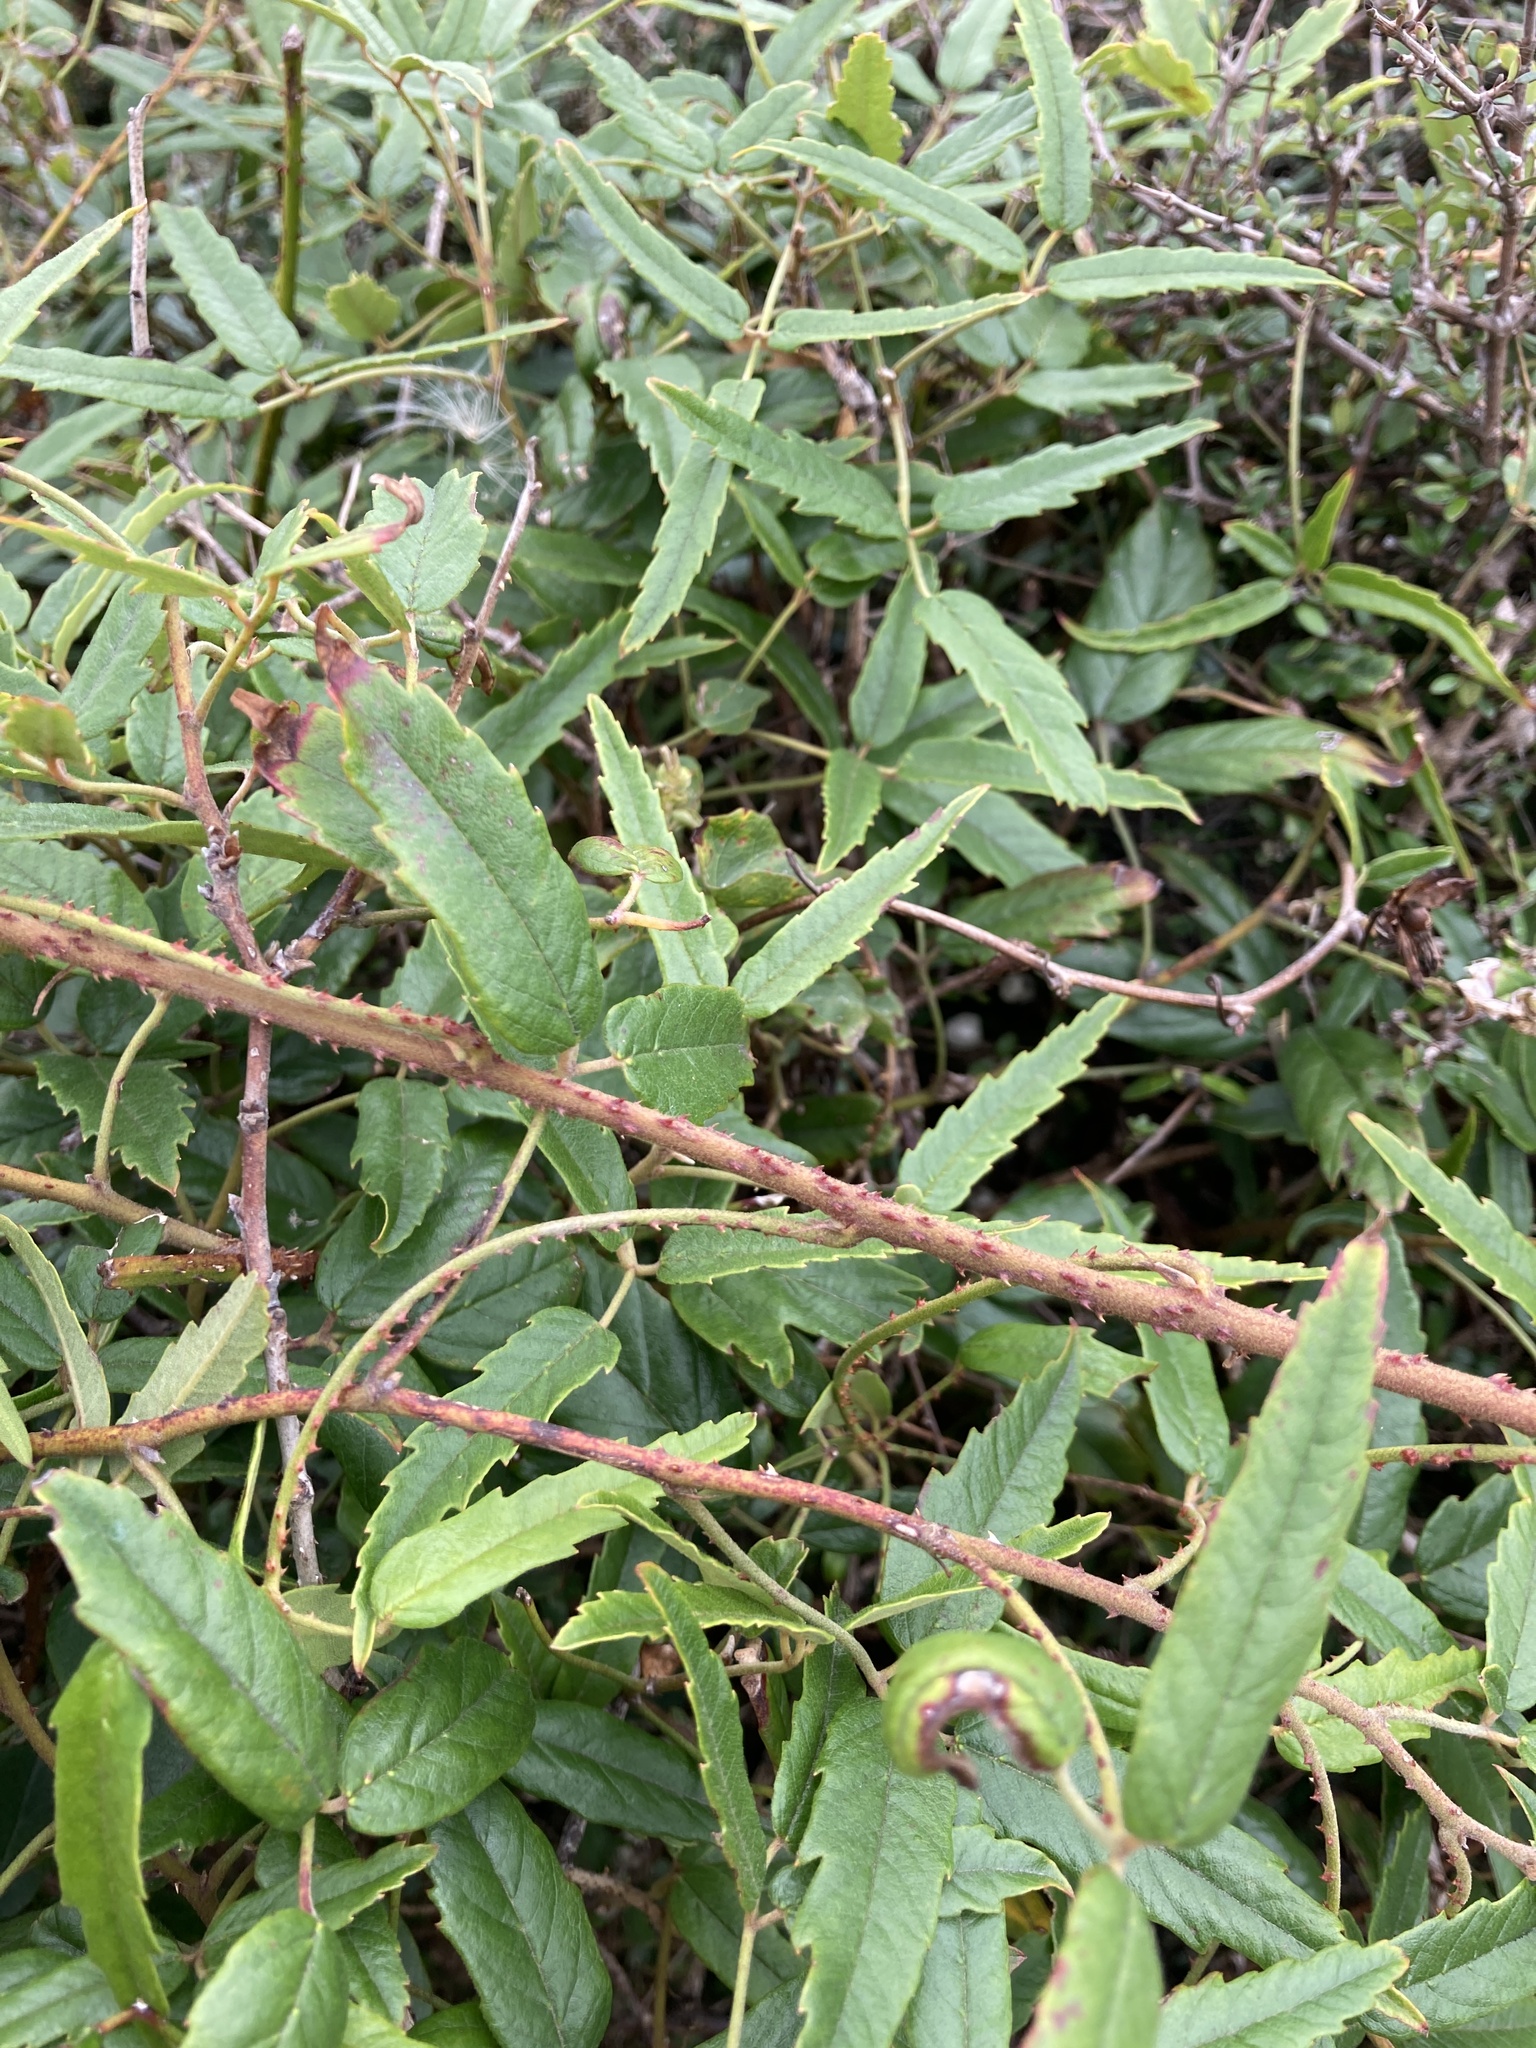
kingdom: Plantae
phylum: Tracheophyta
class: Magnoliopsida
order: Rosales
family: Rosaceae
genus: Rubus
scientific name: Rubus schmidelioides
